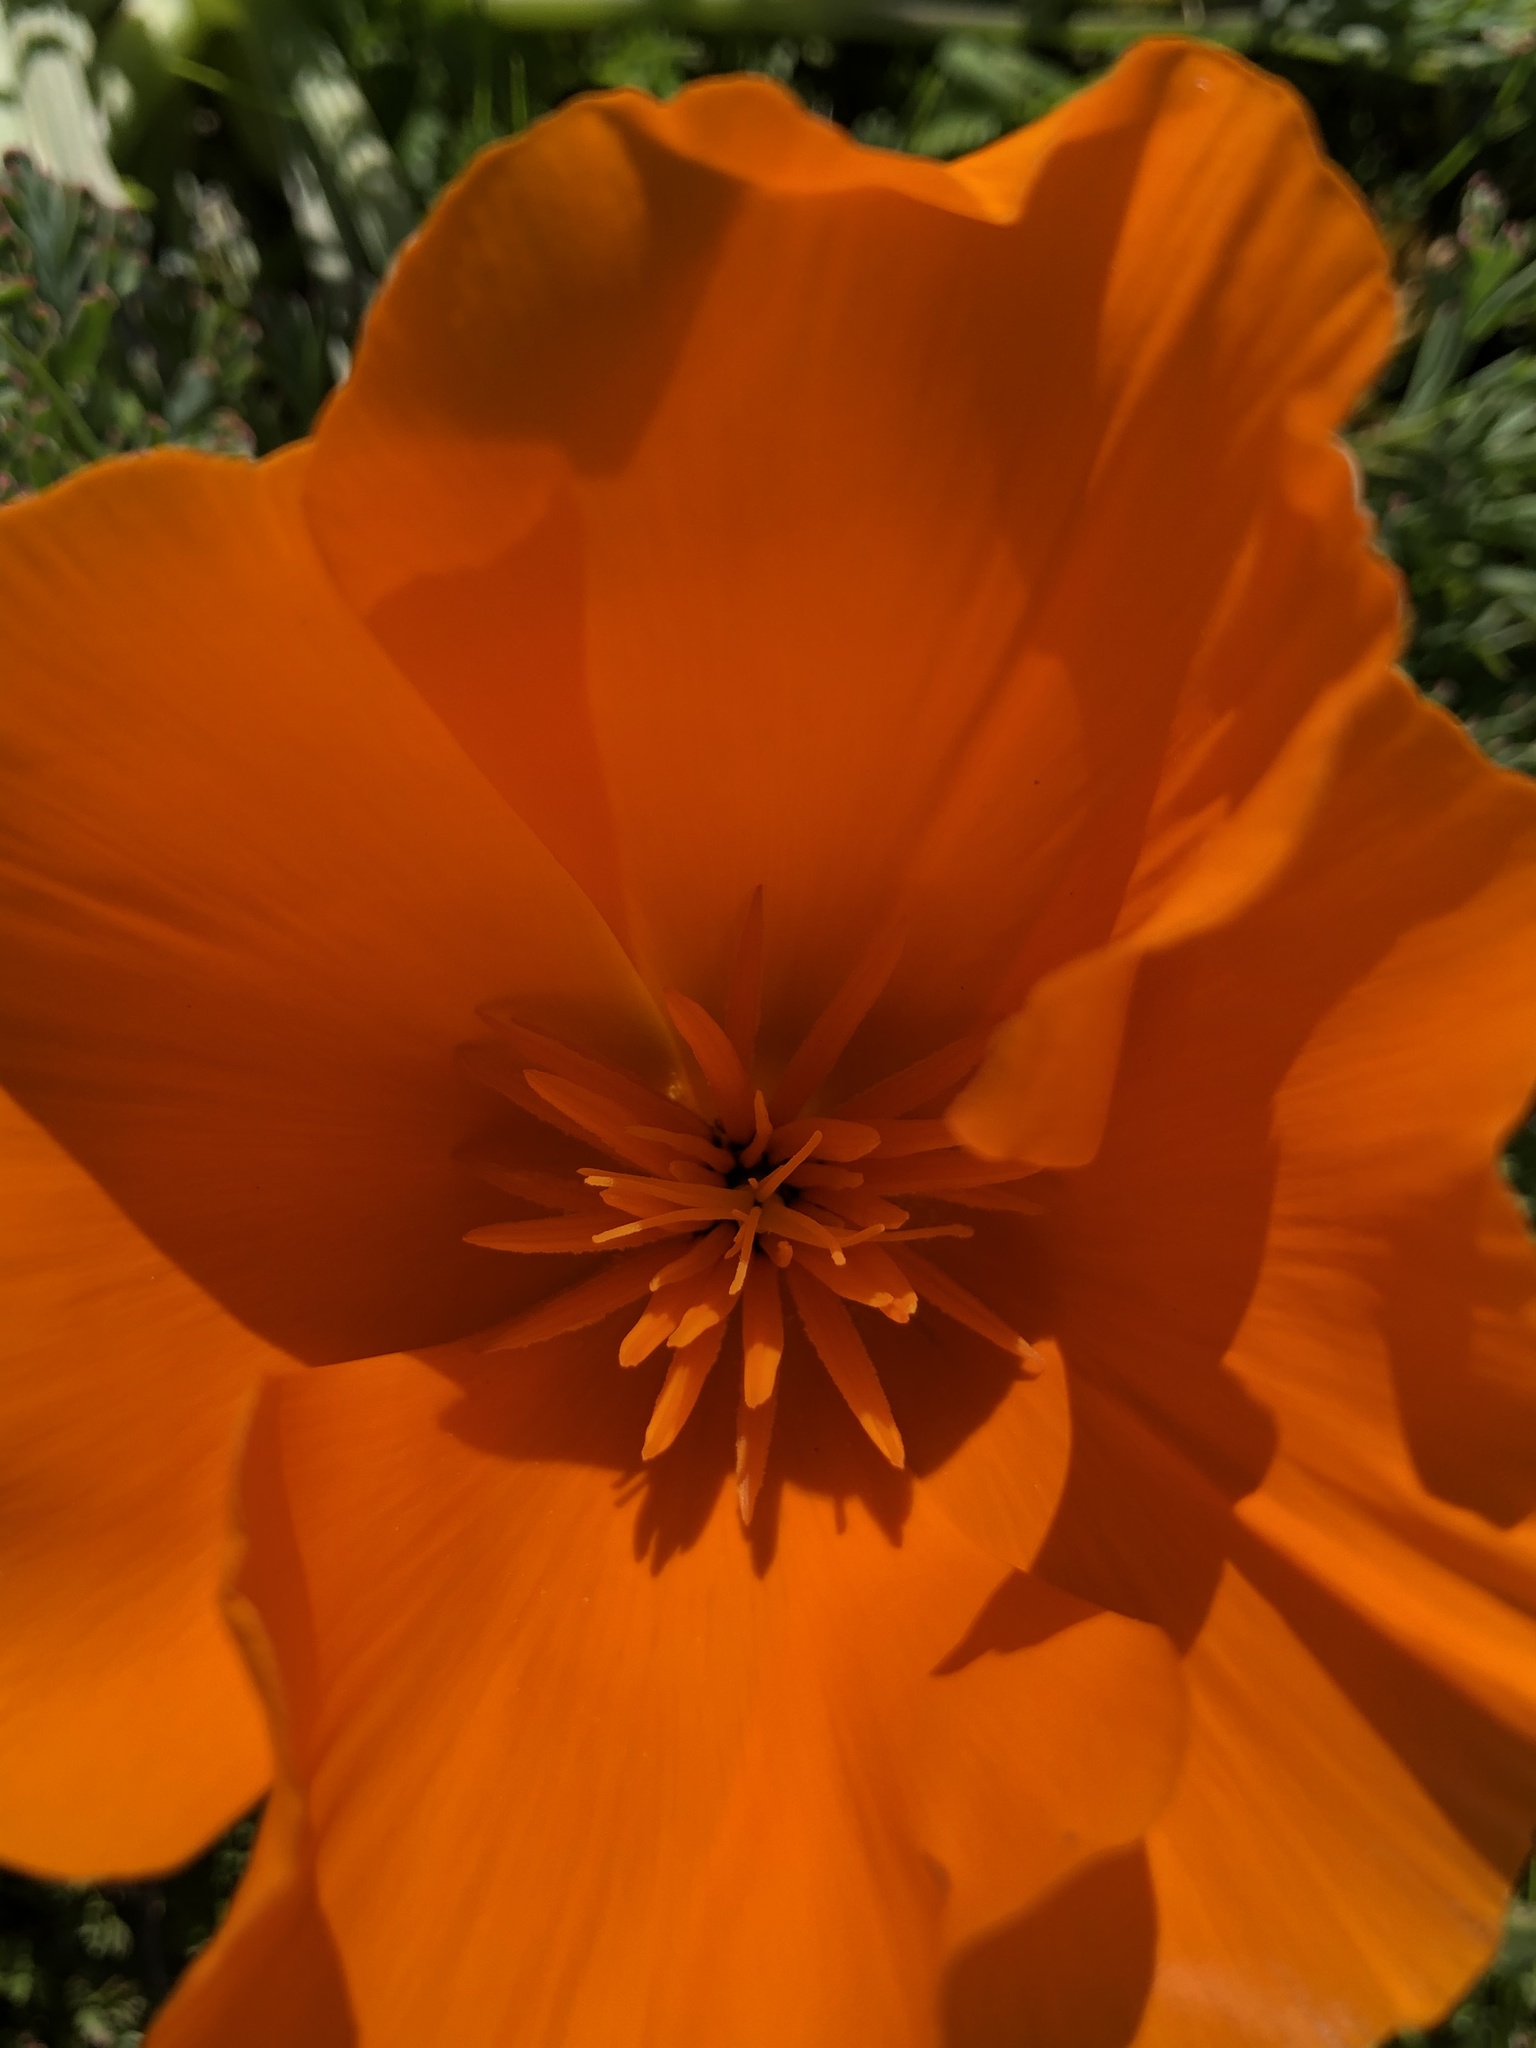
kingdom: Plantae
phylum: Tracheophyta
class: Magnoliopsida
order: Ranunculales
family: Papaveraceae
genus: Eschscholzia
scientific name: Eschscholzia californica
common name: California poppy
